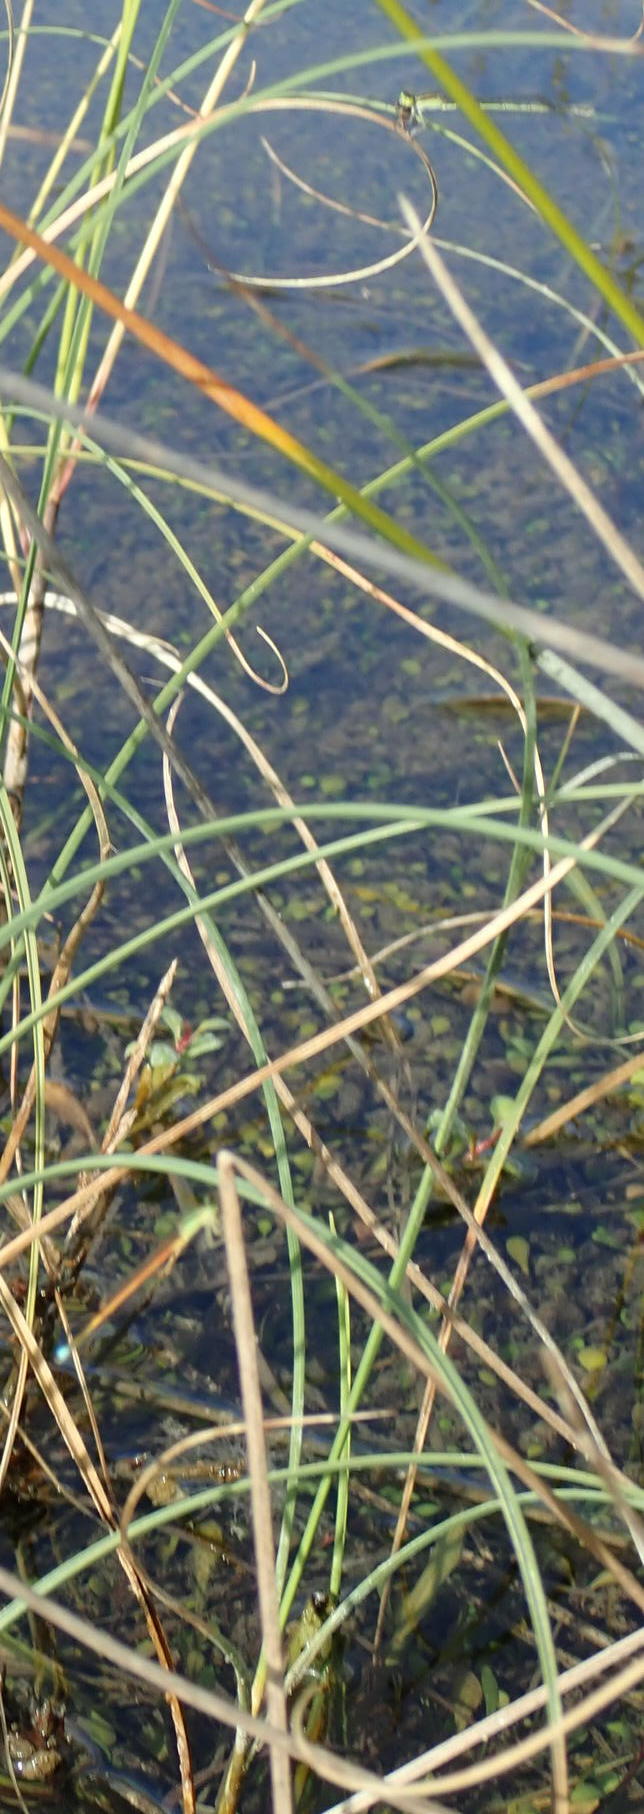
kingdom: Animalia
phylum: Arthropoda
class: Insecta
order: Odonata
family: Coenagrionidae
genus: Ischnura
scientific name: Ischnura aurora
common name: Gossamer damselfly
